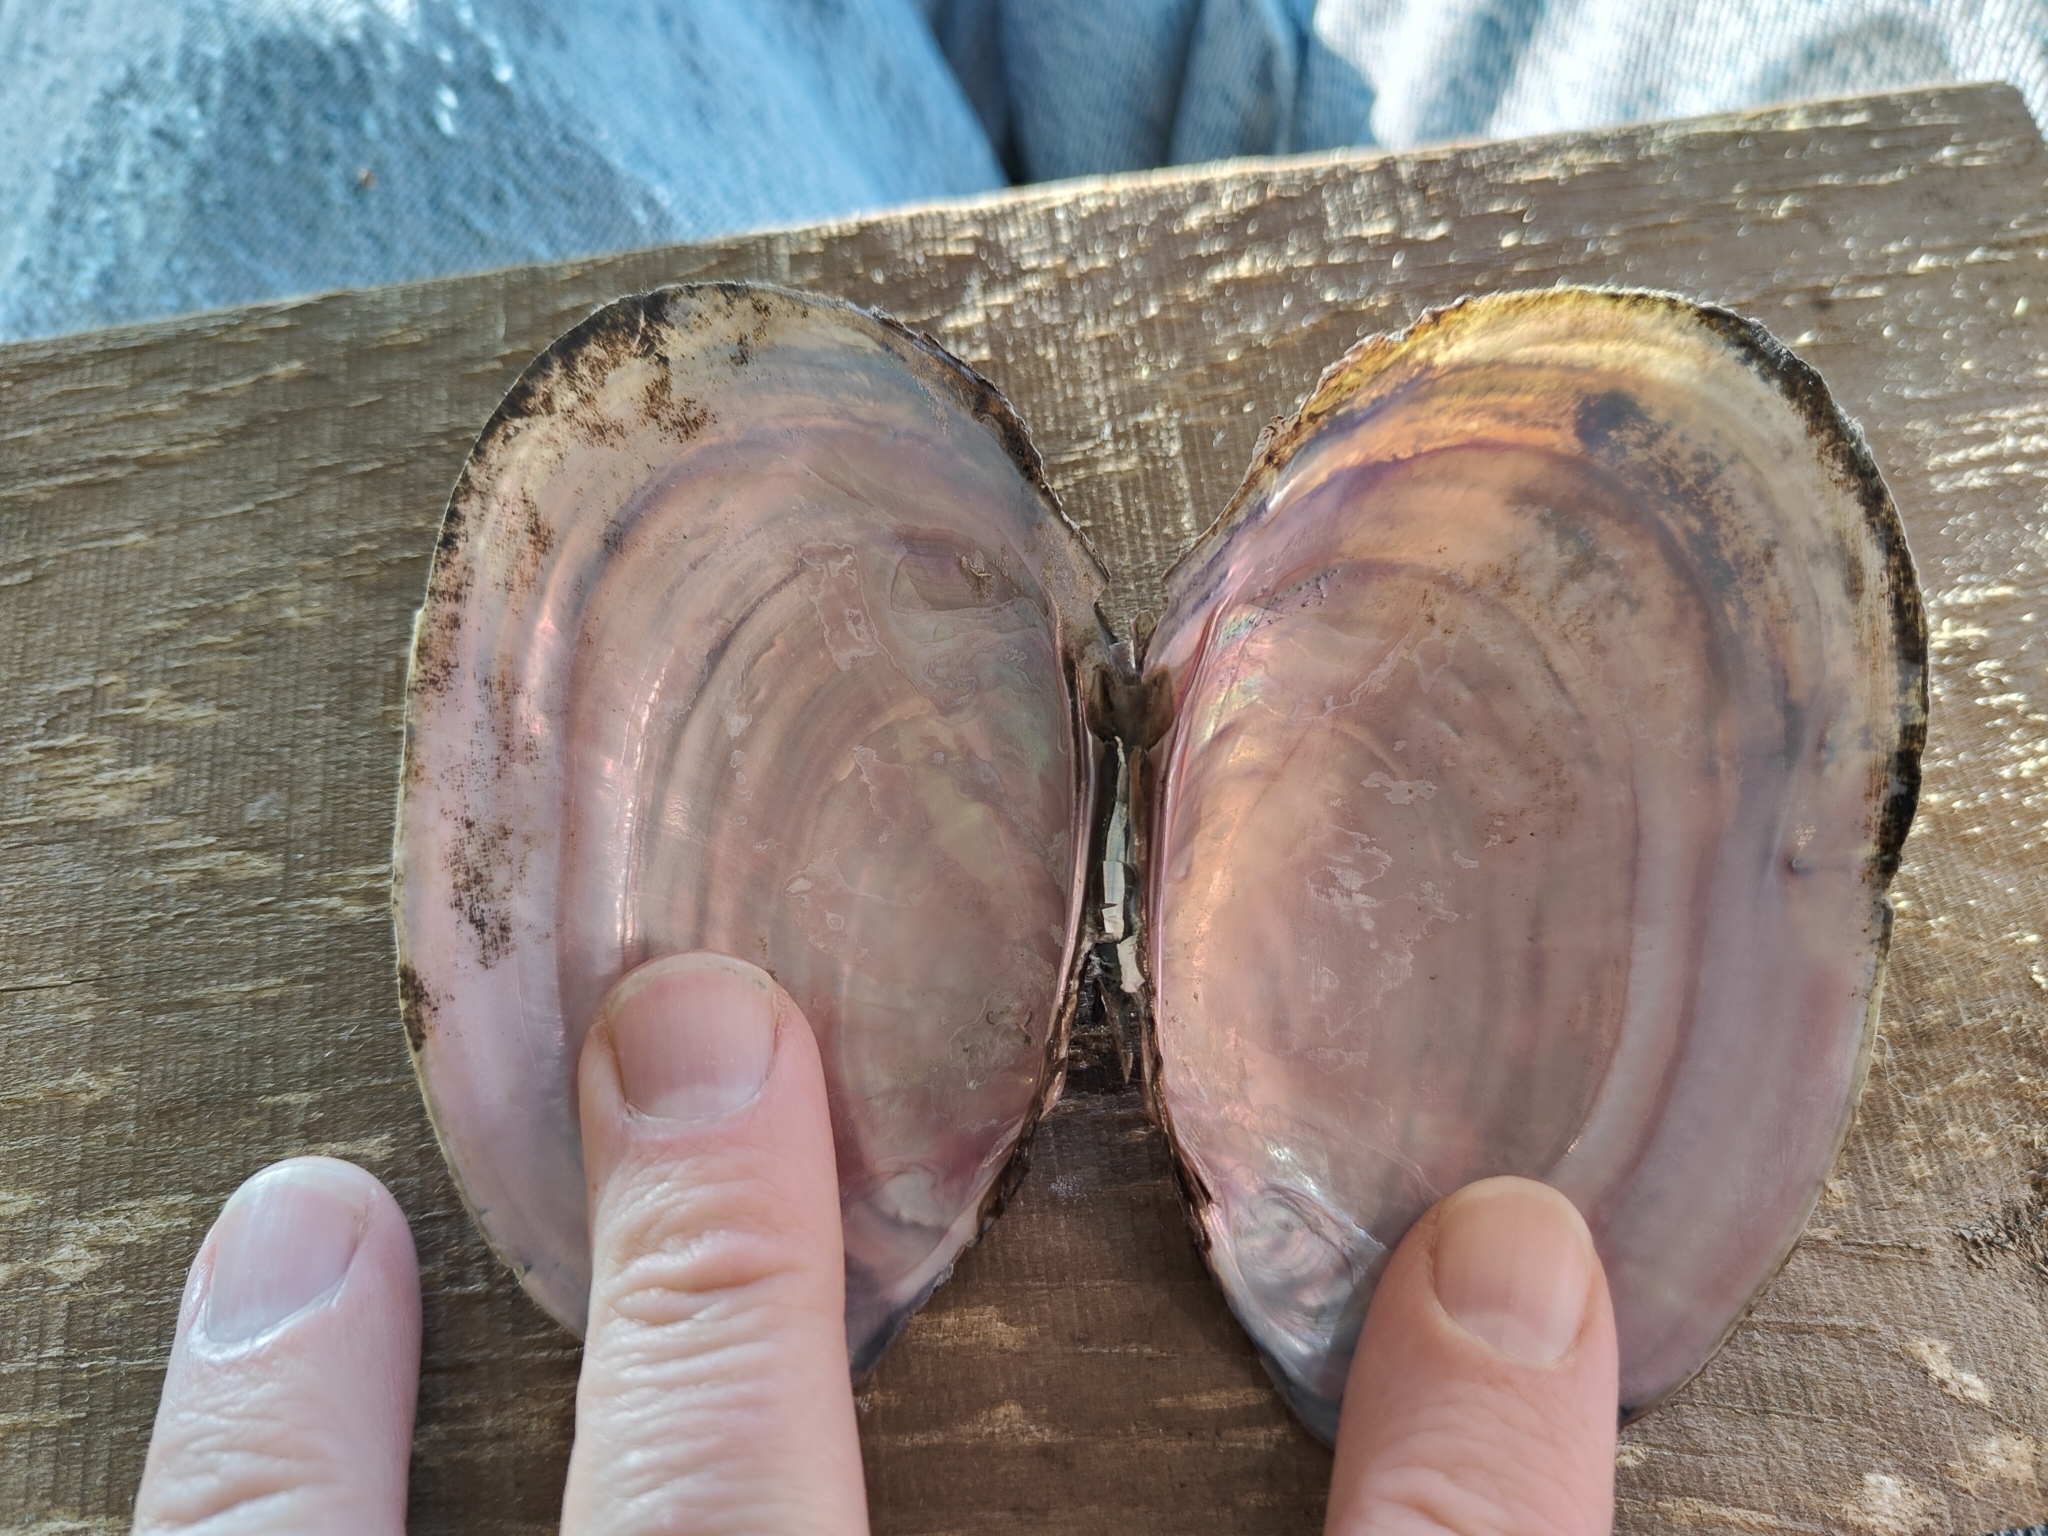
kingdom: Animalia
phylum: Mollusca
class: Bivalvia
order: Unionida
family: Unionidae
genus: Potamilus
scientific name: Potamilus ohiensis
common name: Pink papershell
